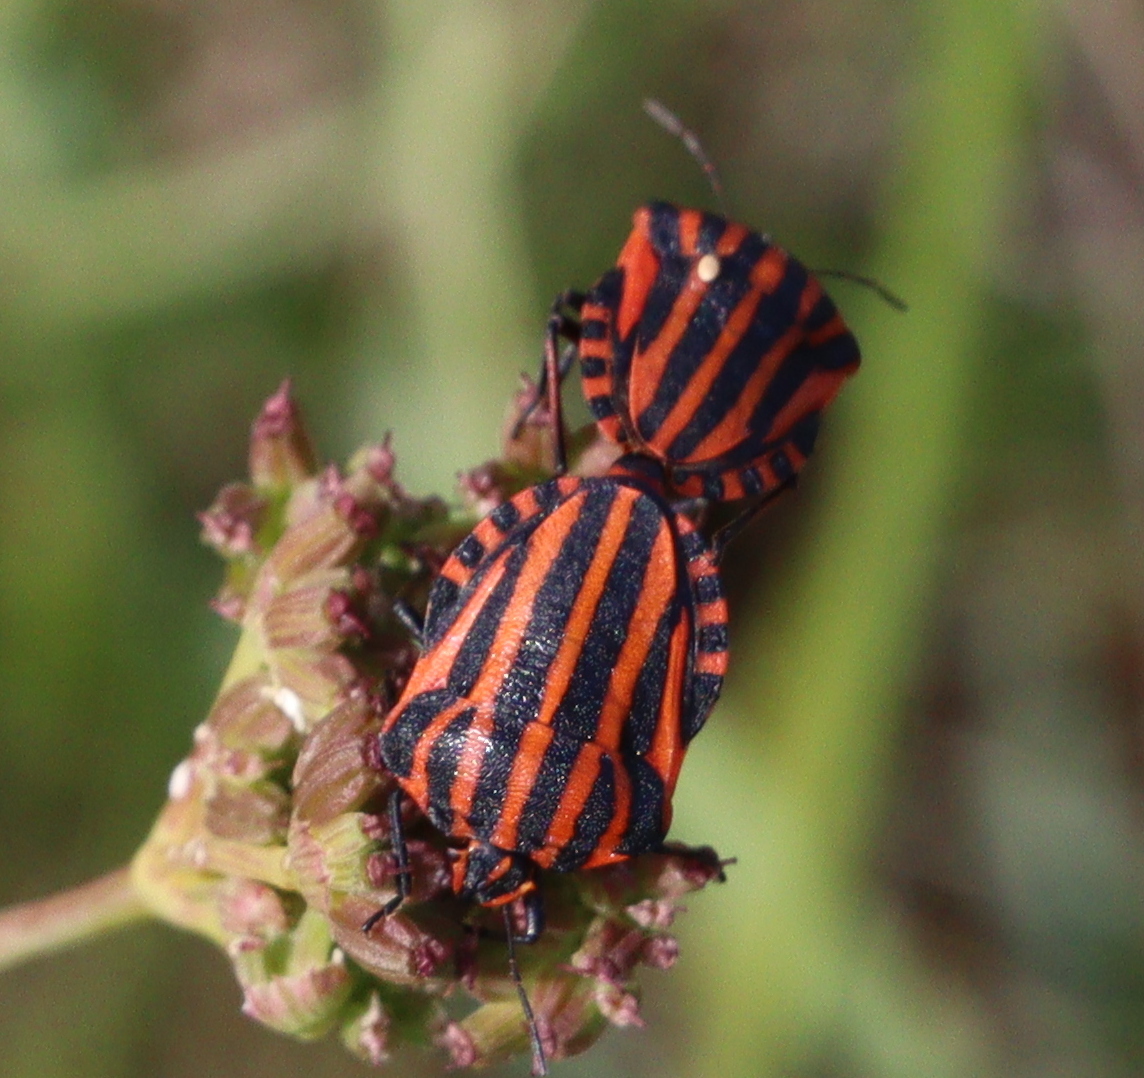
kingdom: Animalia
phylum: Arthropoda
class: Insecta
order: Hemiptera
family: Pentatomidae
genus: Graphosoma
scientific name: Graphosoma italicum
